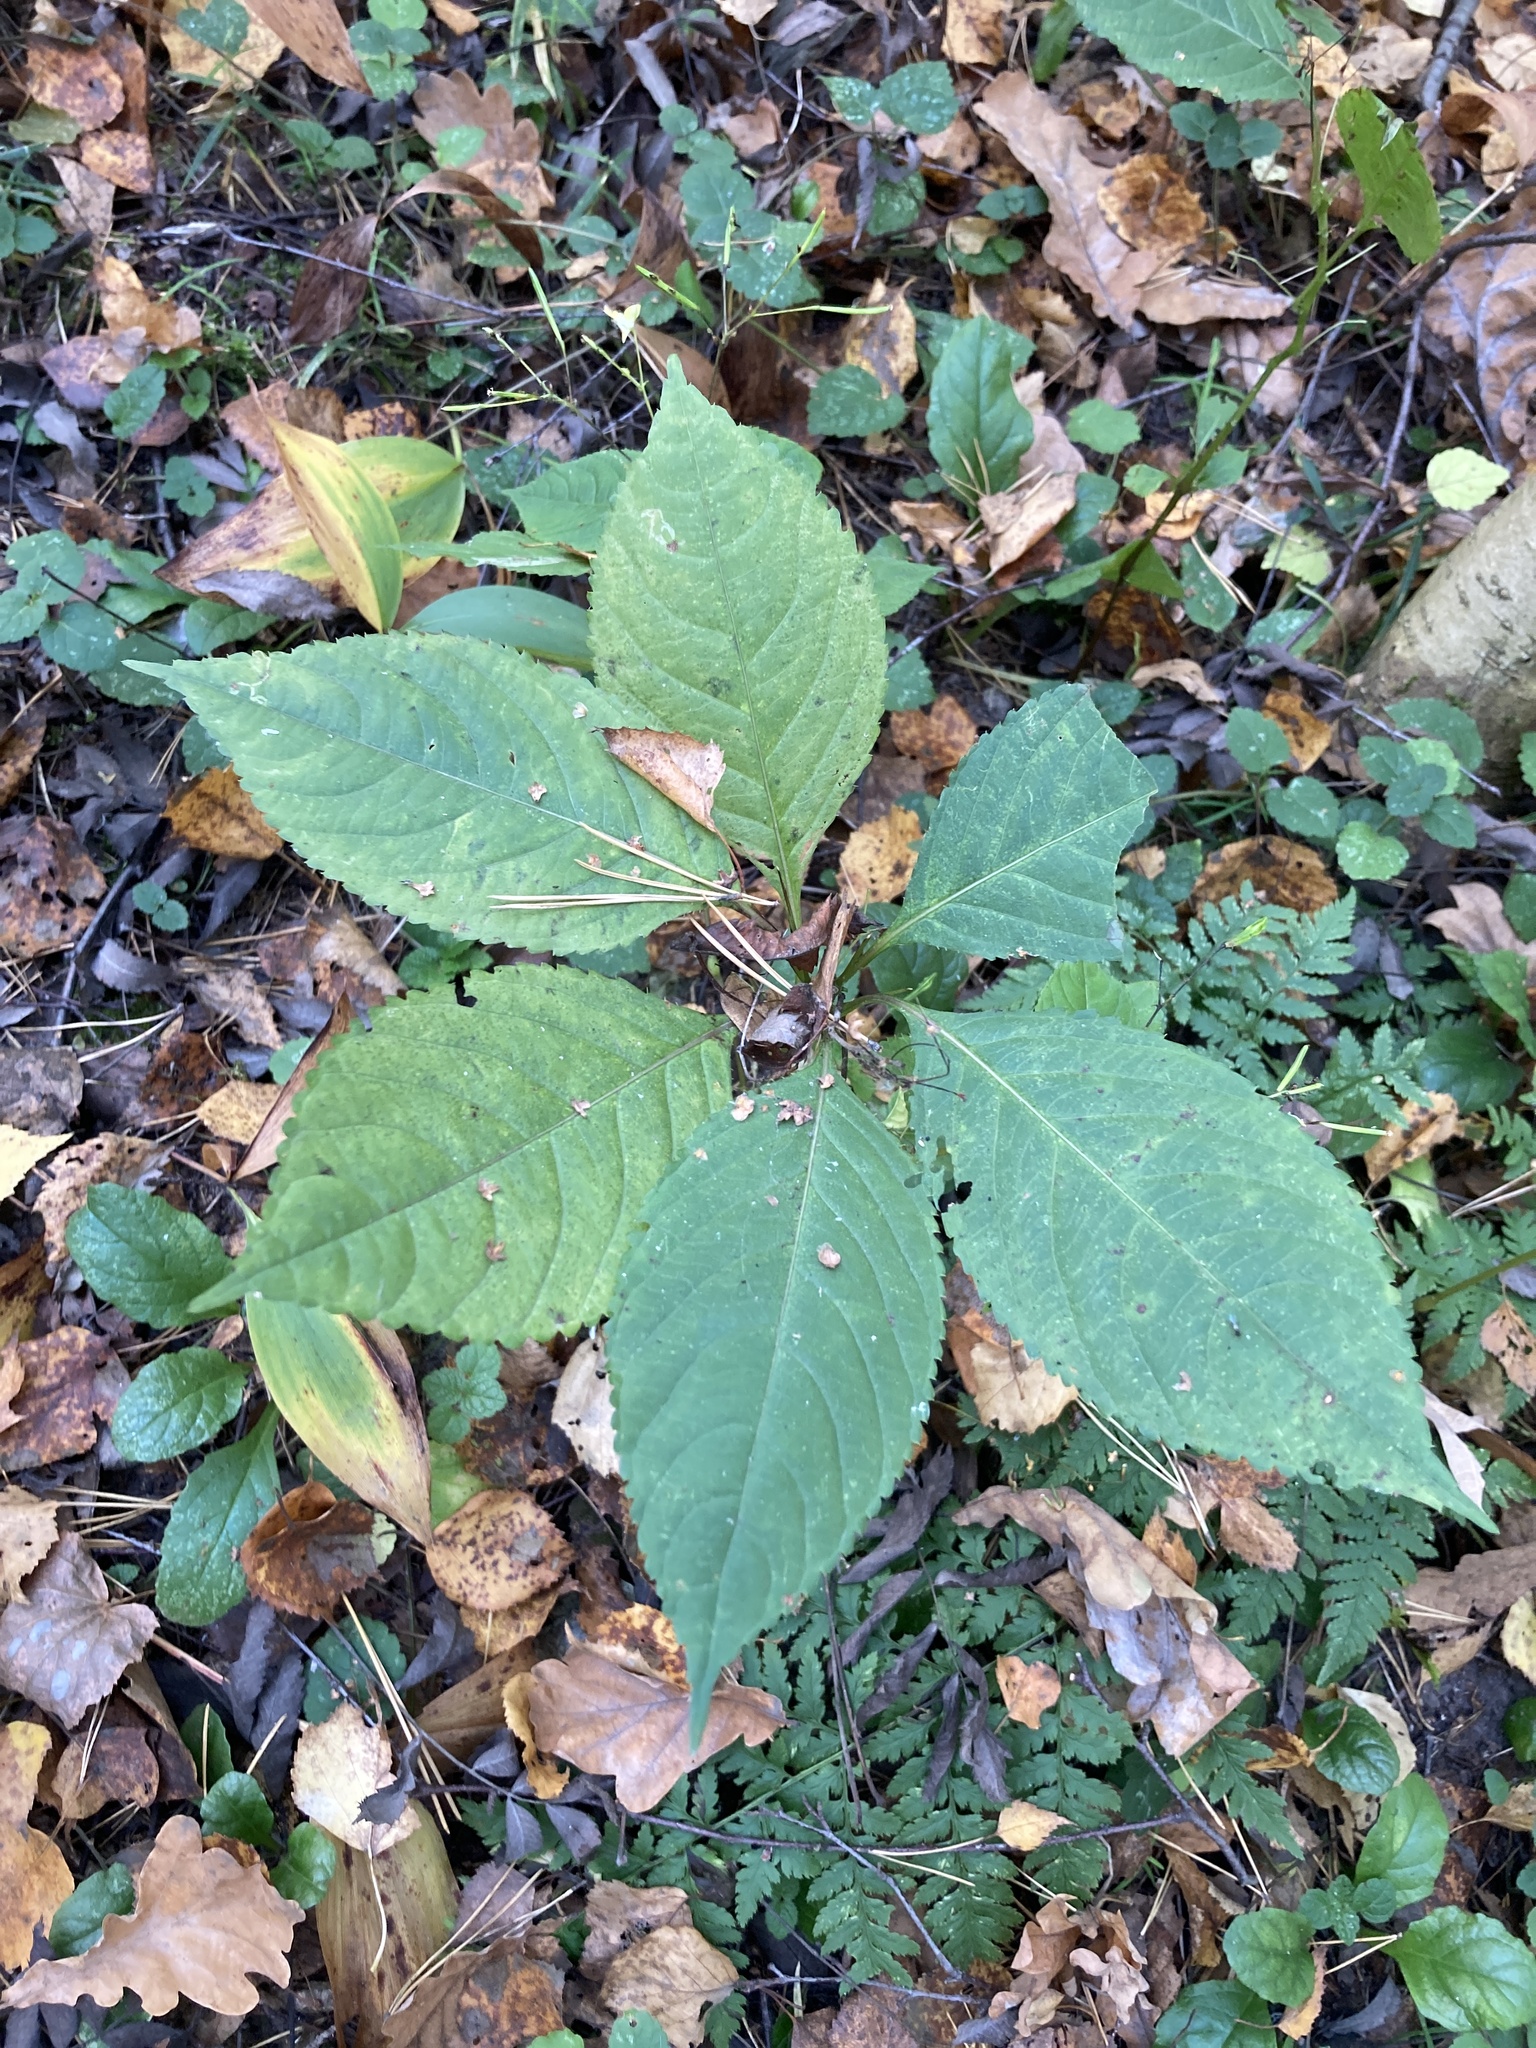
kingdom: Plantae
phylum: Tracheophyta
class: Magnoliopsida
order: Ericales
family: Balsaminaceae
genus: Impatiens
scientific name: Impatiens parviflora
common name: Small balsam
